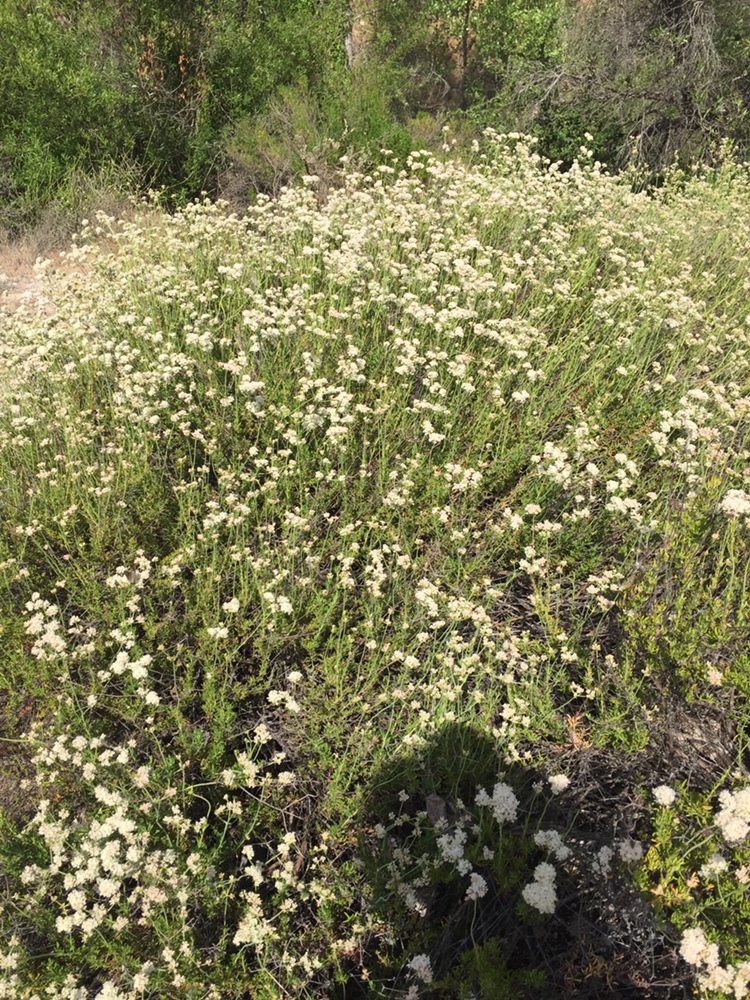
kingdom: Plantae
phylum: Tracheophyta
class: Magnoliopsida
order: Caryophyllales
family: Polygonaceae
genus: Eriogonum
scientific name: Eriogonum fasciculatum
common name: California wild buckwheat
